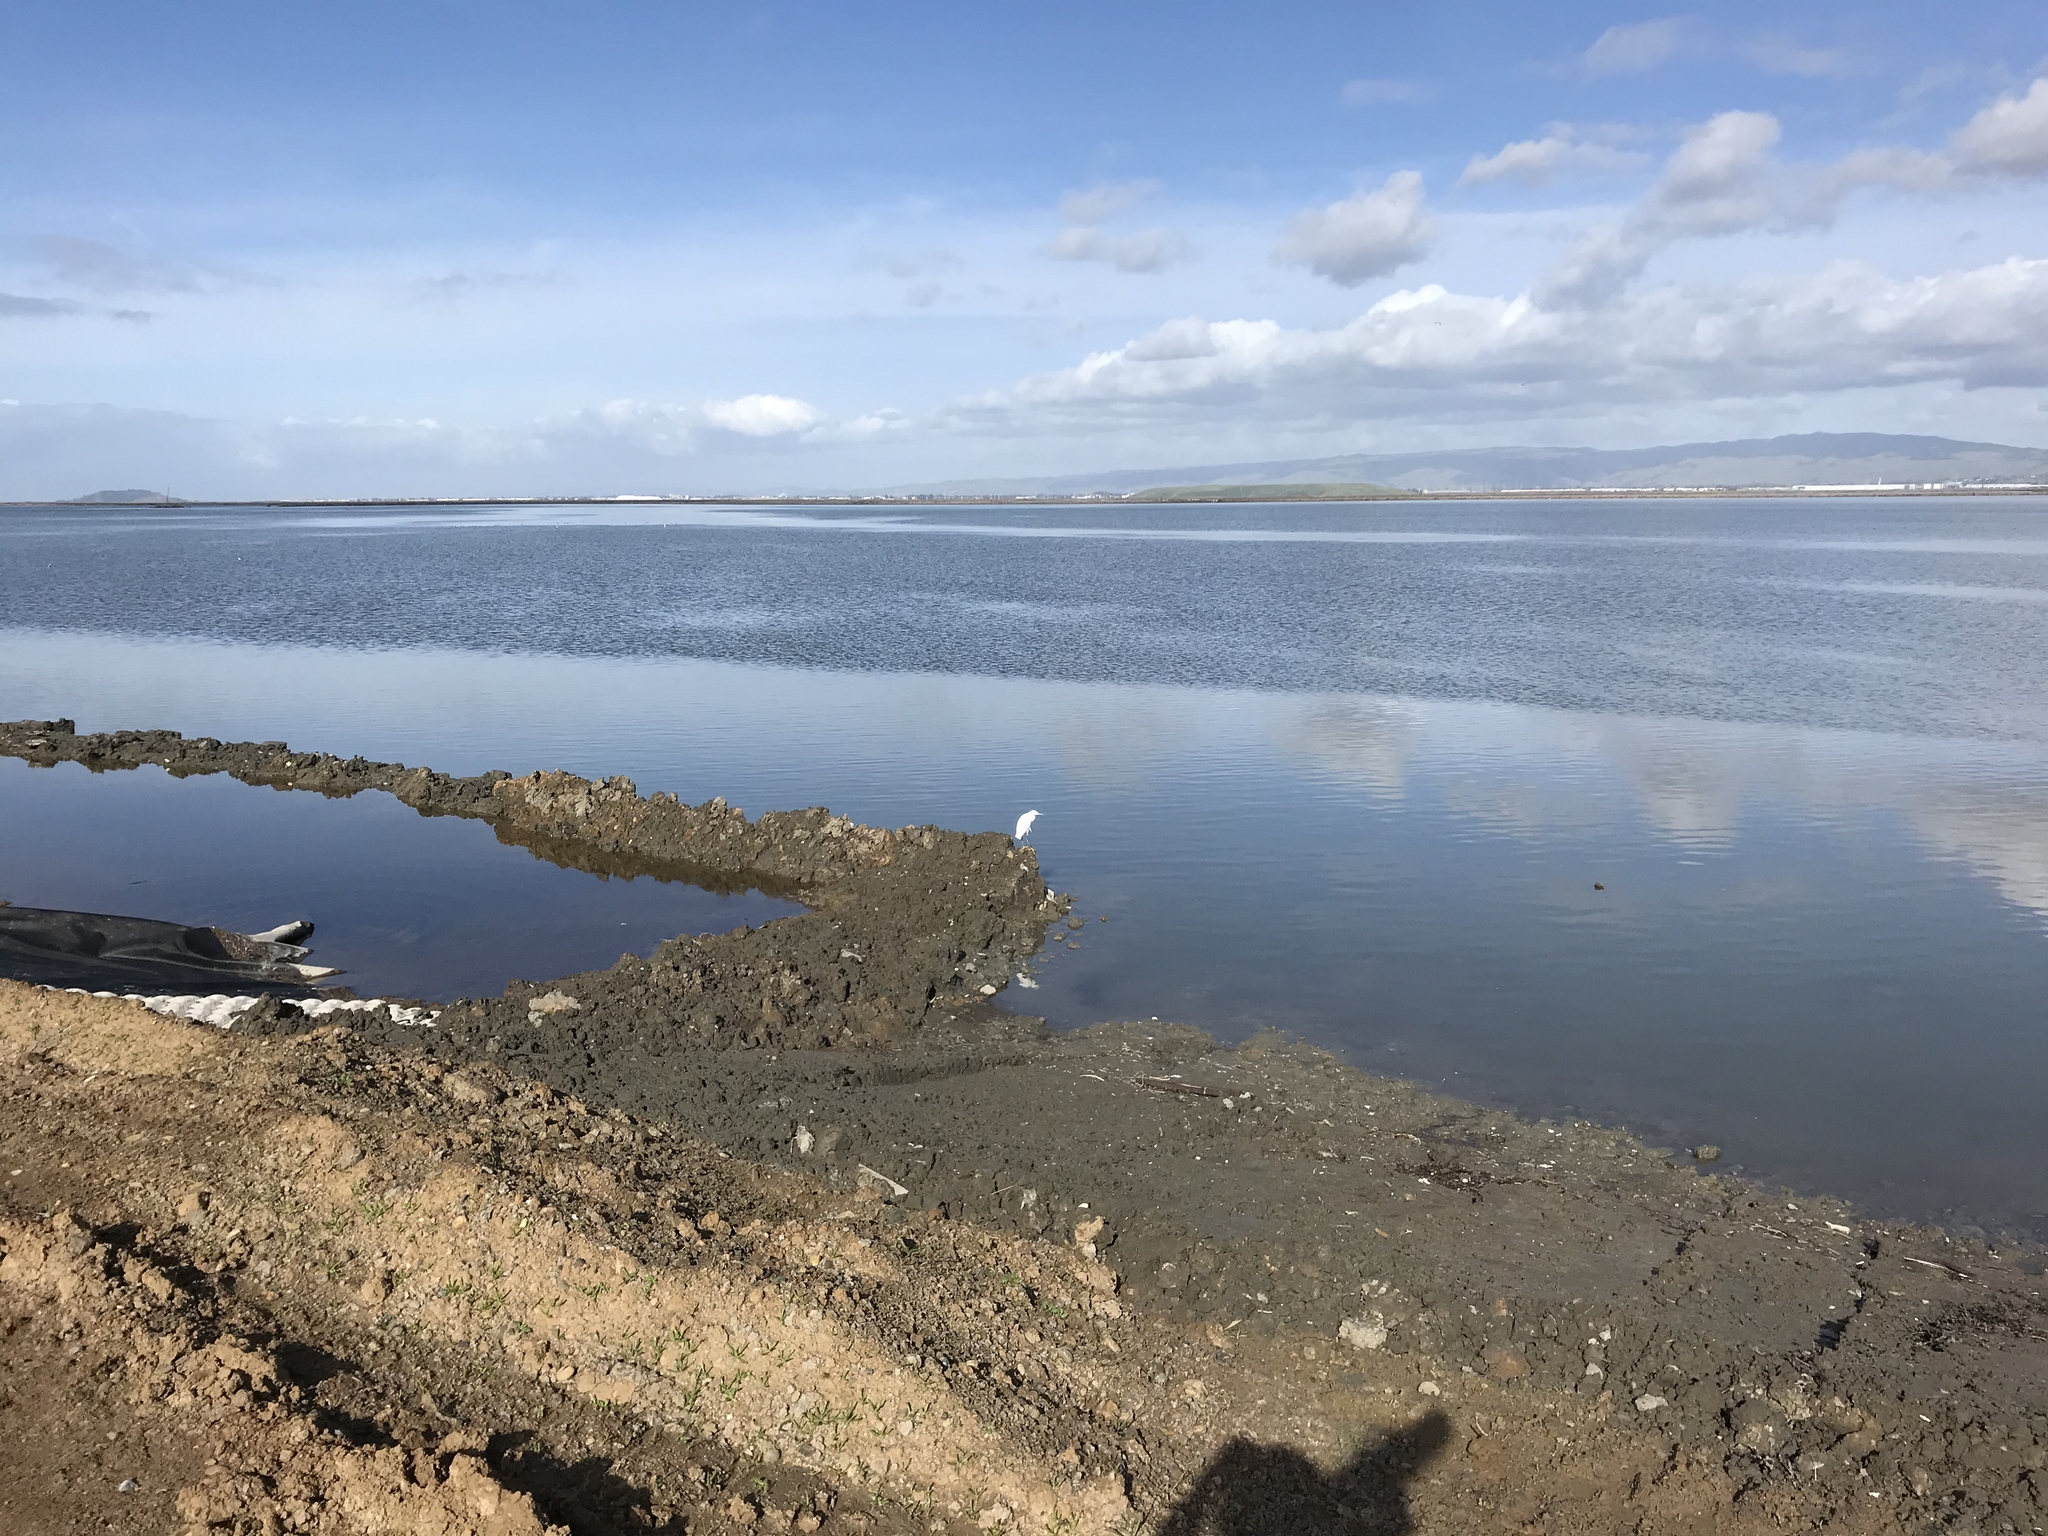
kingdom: Animalia
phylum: Chordata
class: Aves
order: Pelecaniformes
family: Ardeidae
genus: Egretta
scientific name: Egretta thula
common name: Snowy egret
